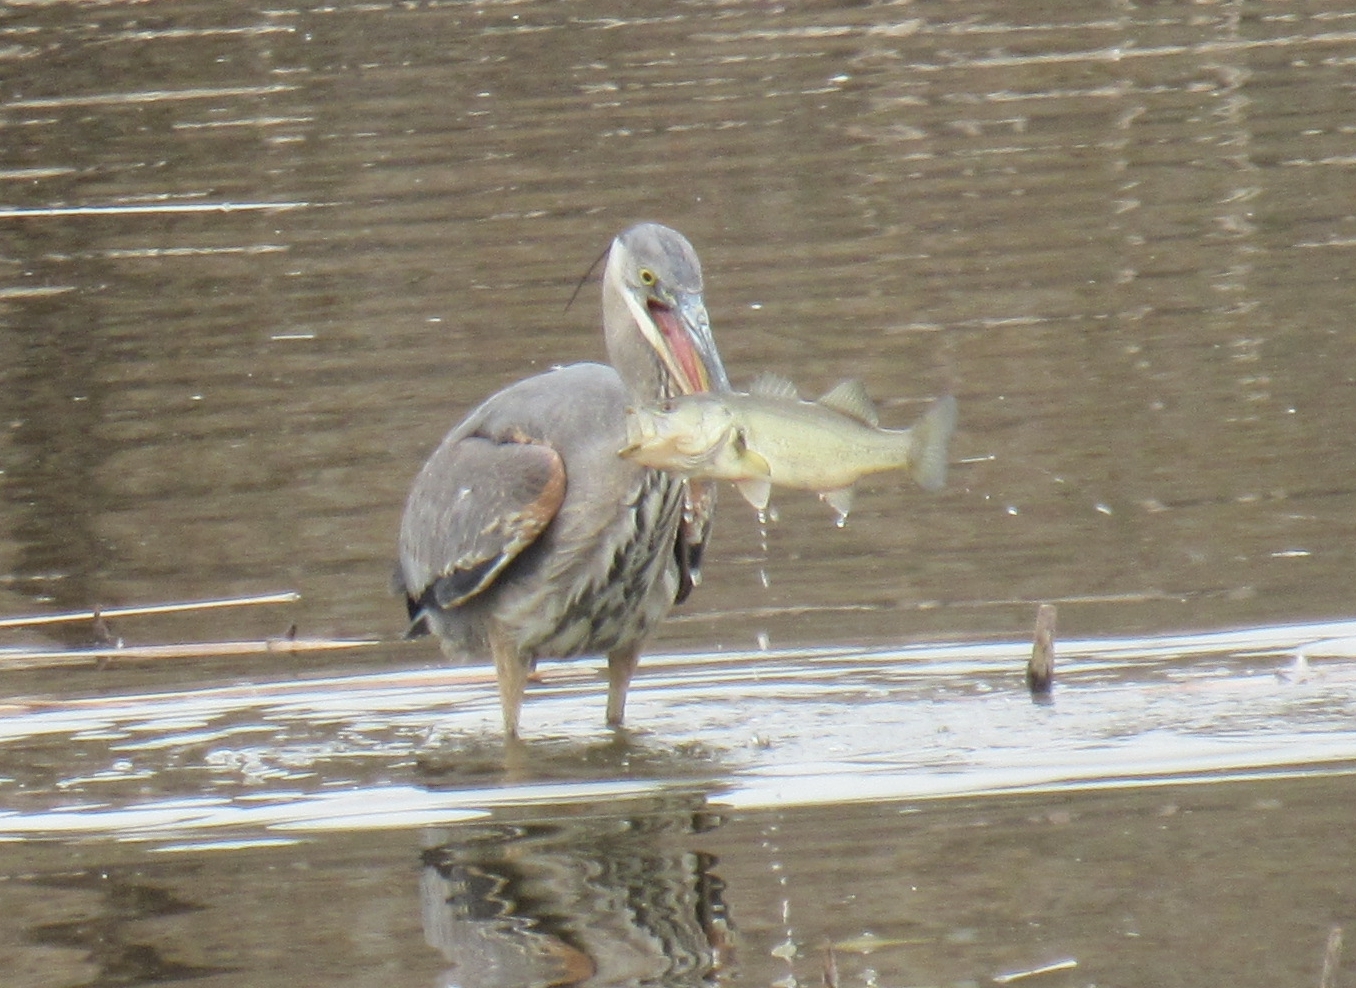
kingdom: Animalia
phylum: Chordata
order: Perciformes
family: Centrarchidae
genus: Micropterus
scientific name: Micropterus
